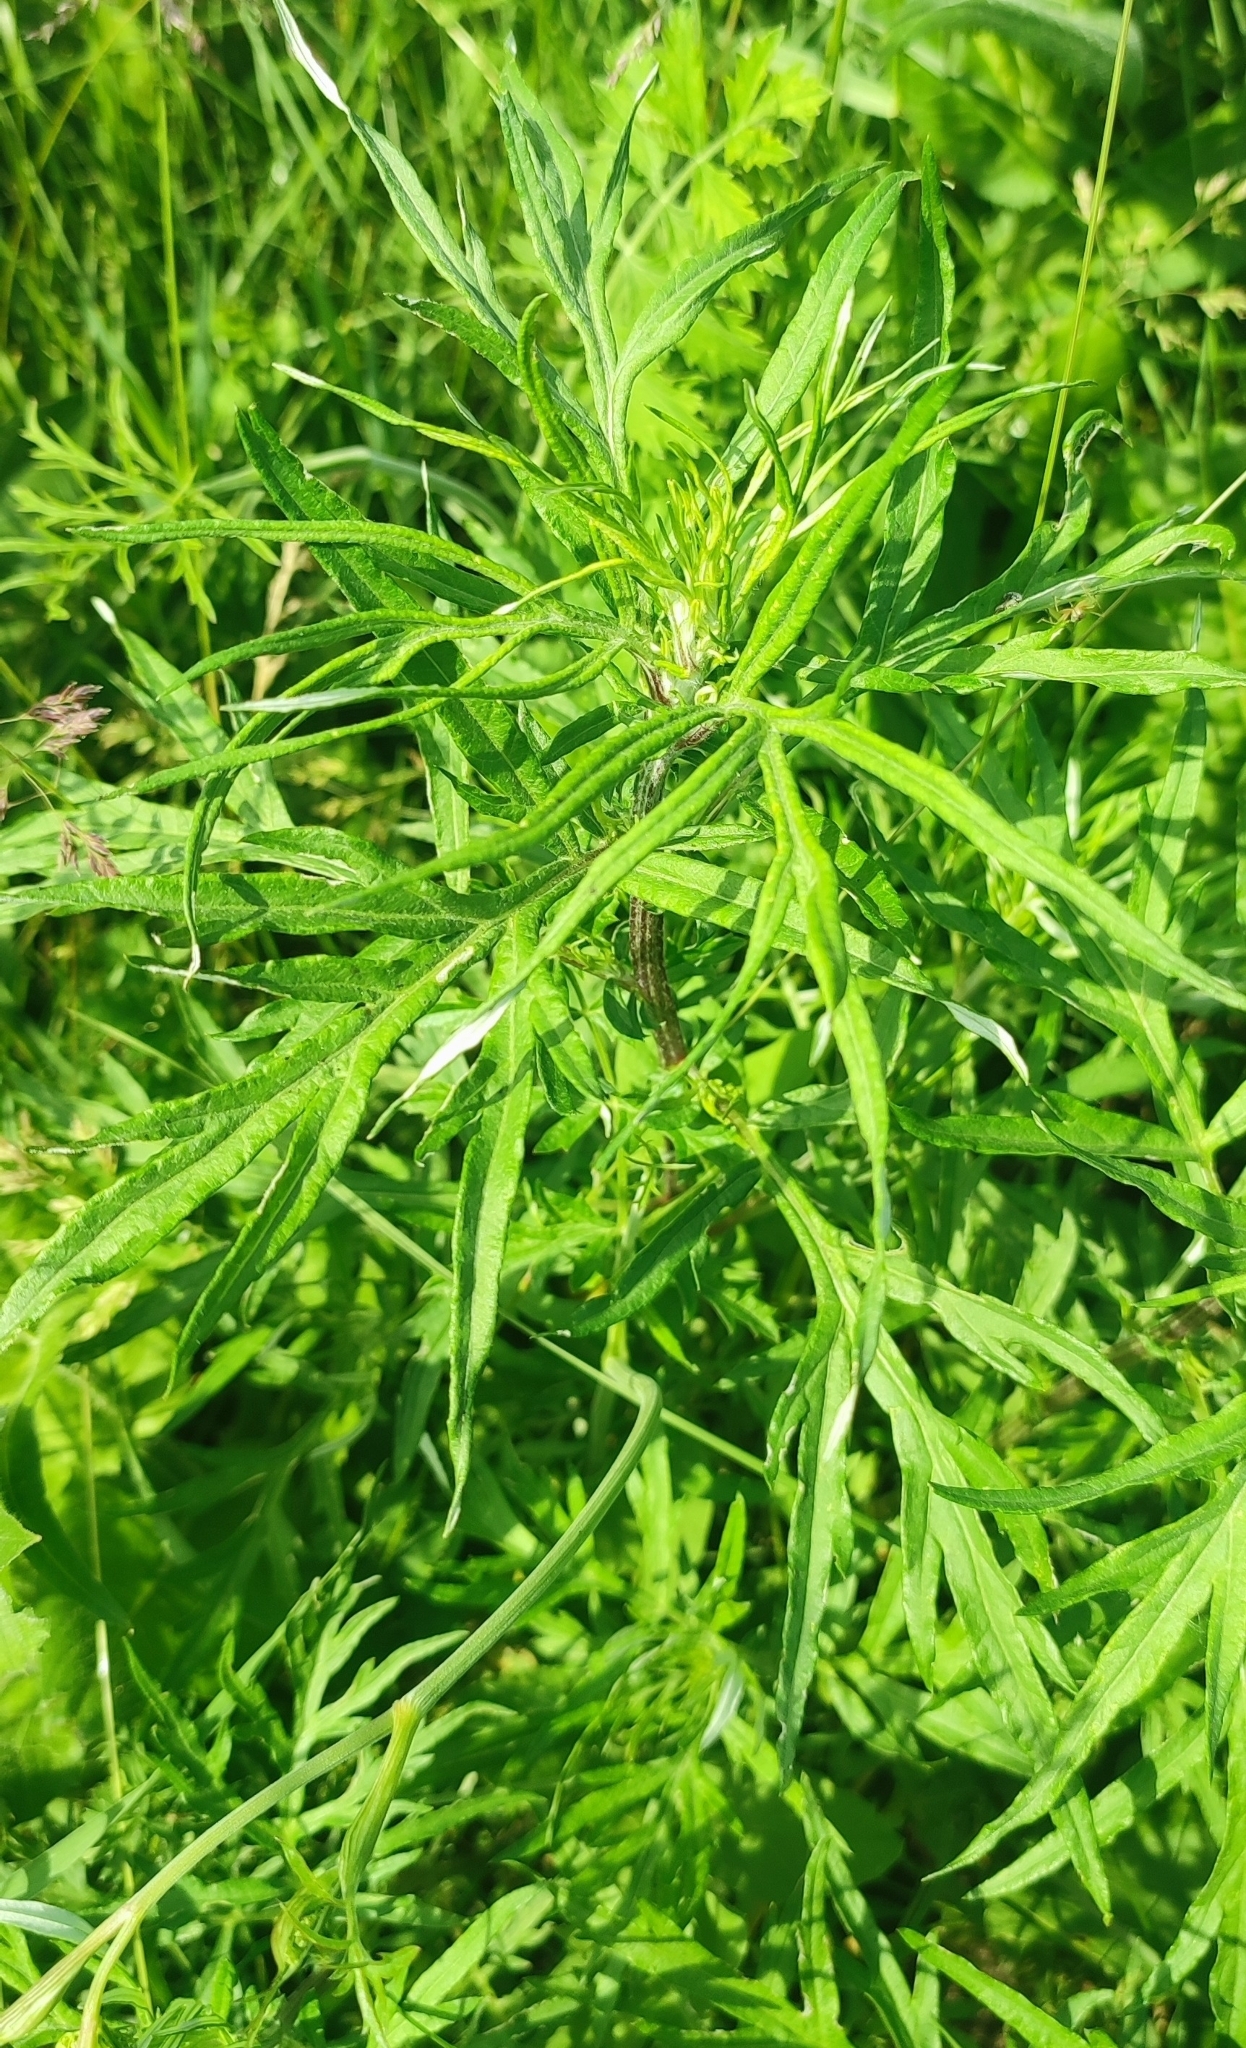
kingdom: Plantae
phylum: Tracheophyta
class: Magnoliopsida
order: Asterales
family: Asteraceae
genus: Artemisia
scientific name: Artemisia vulgaris
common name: Mugwort
